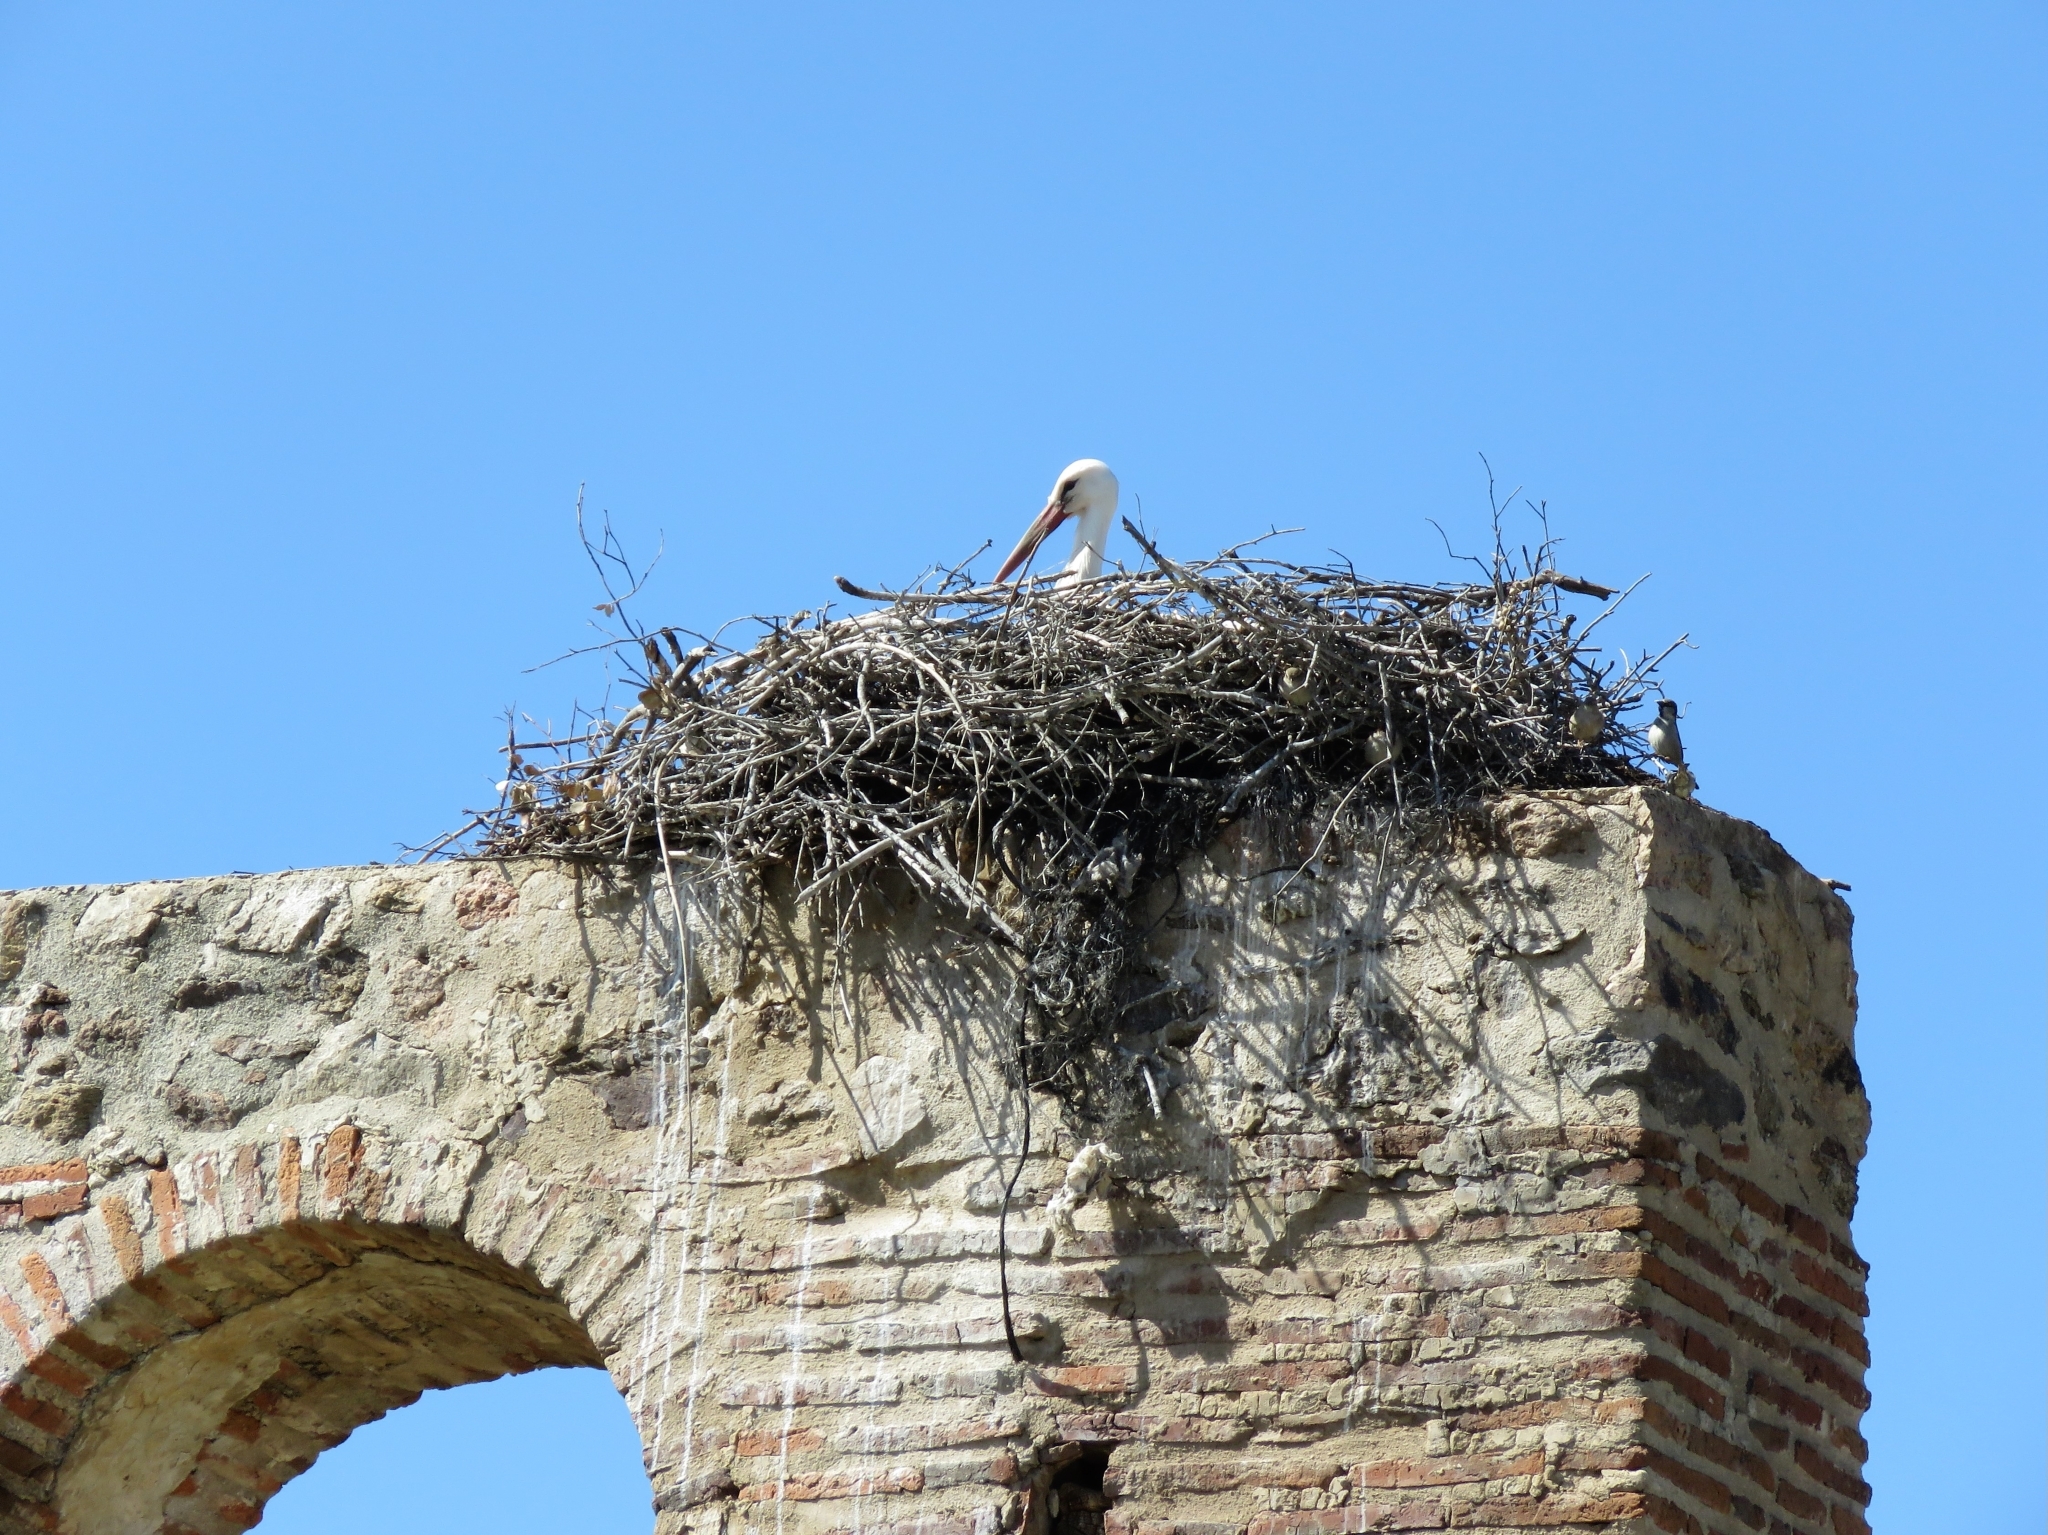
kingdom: Animalia
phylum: Chordata
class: Aves
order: Ciconiiformes
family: Ciconiidae
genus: Ciconia
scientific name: Ciconia ciconia
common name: White stork
